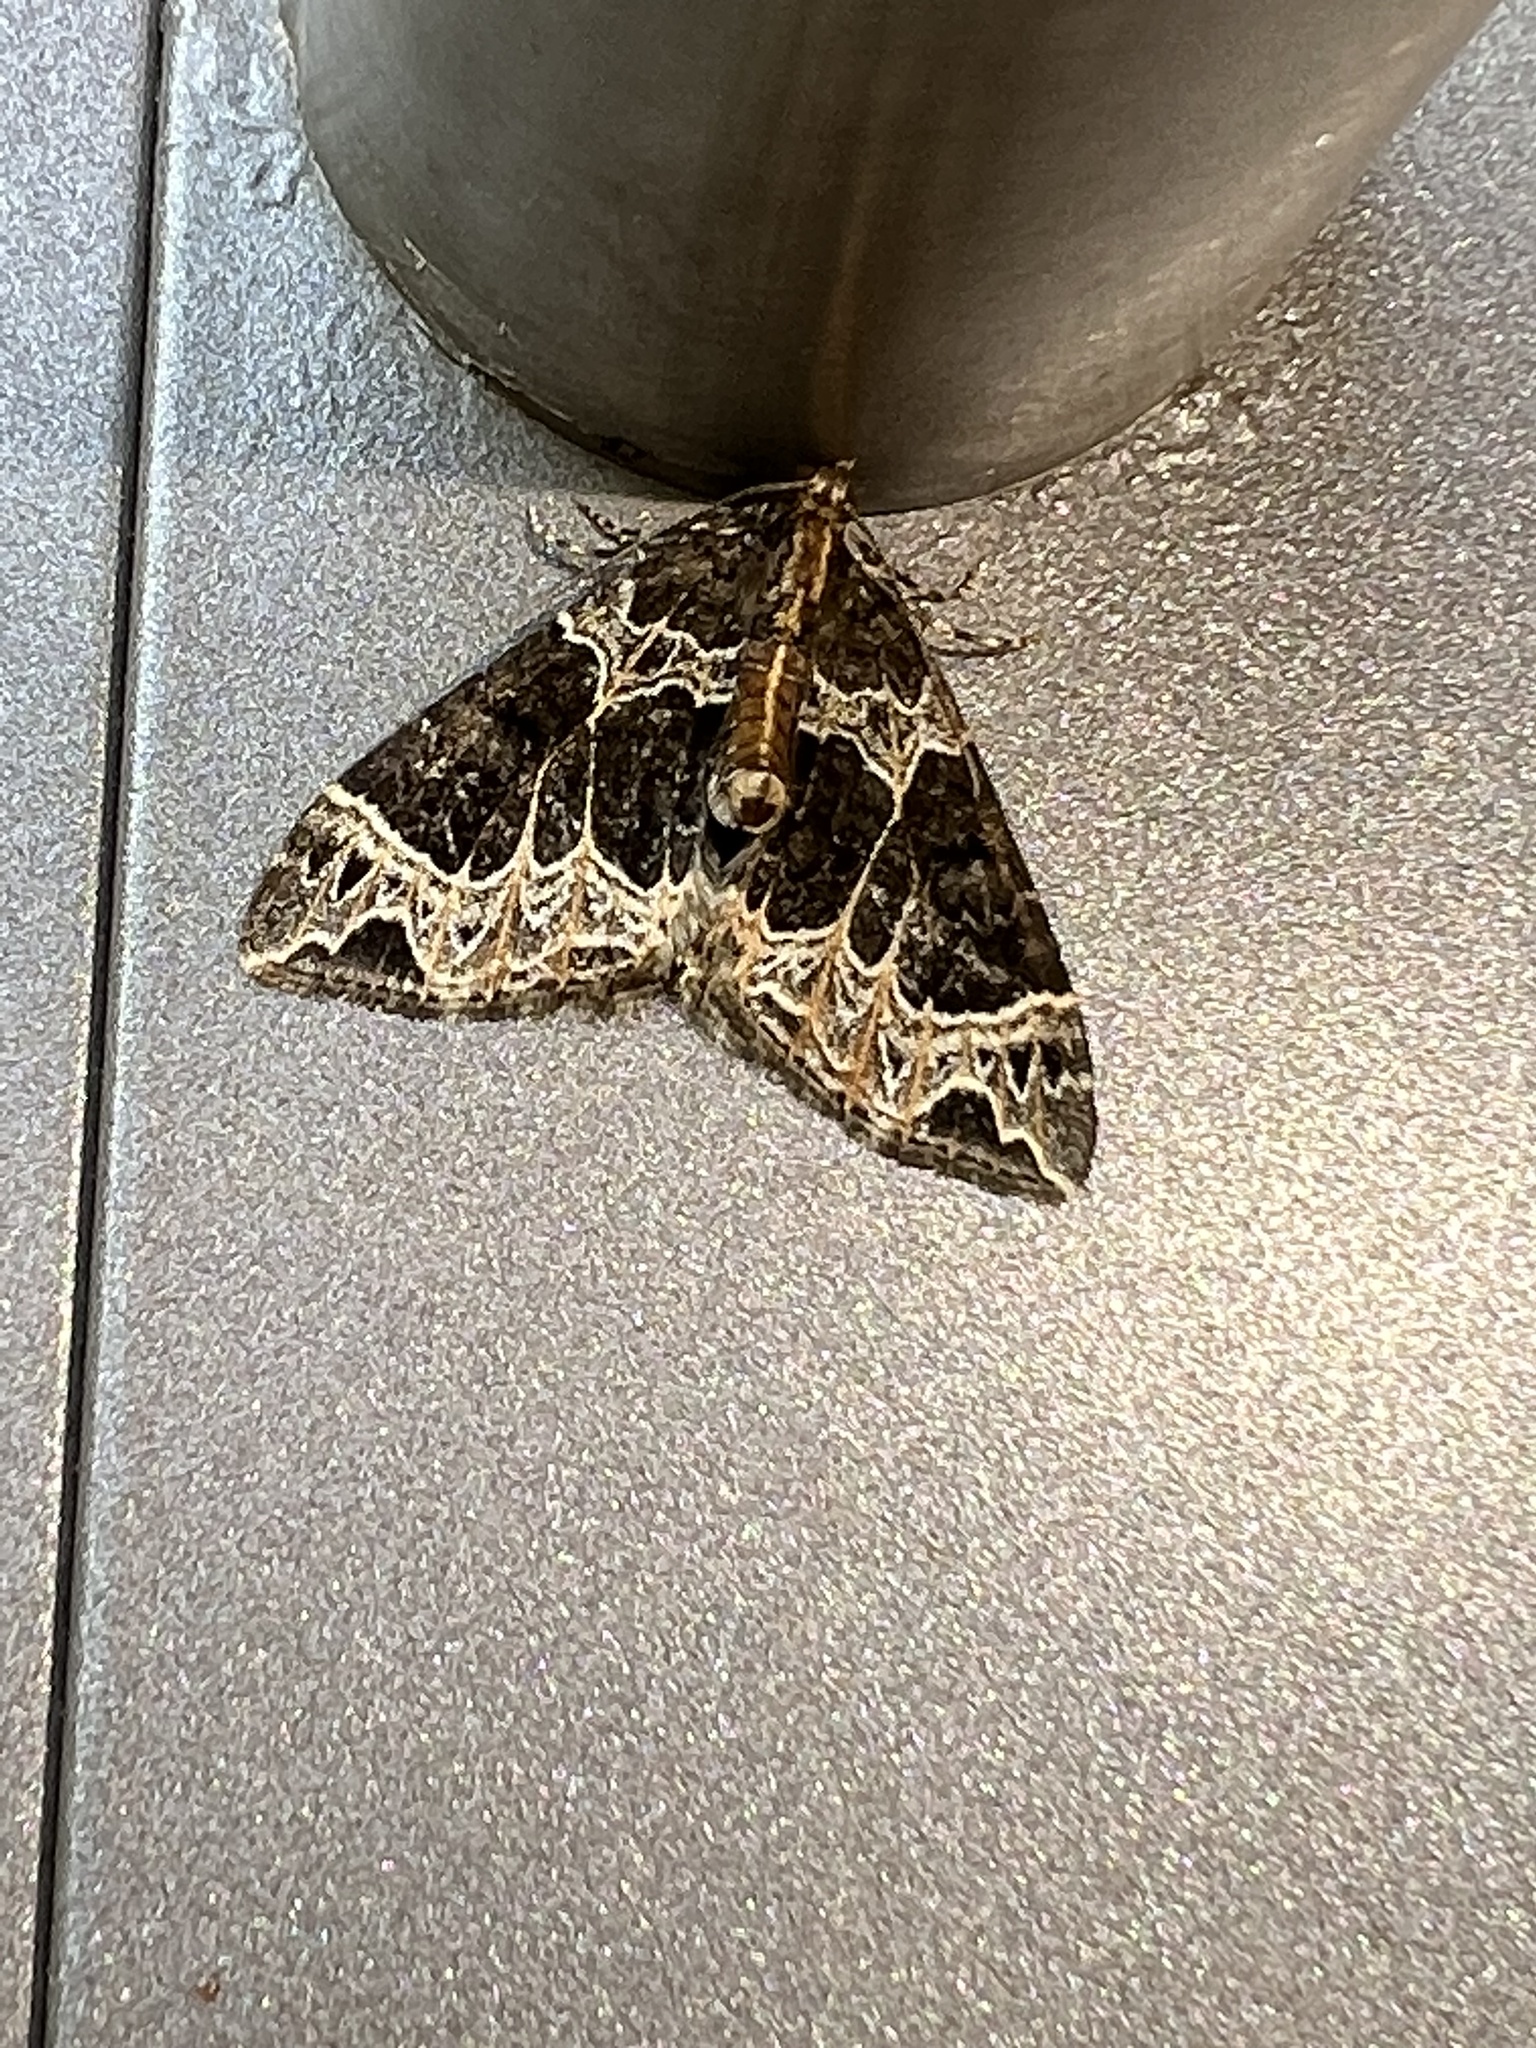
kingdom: Animalia
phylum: Arthropoda
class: Insecta
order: Lepidoptera
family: Geometridae
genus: Ecliptopera
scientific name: Ecliptopera silaceata
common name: Small phoenix
